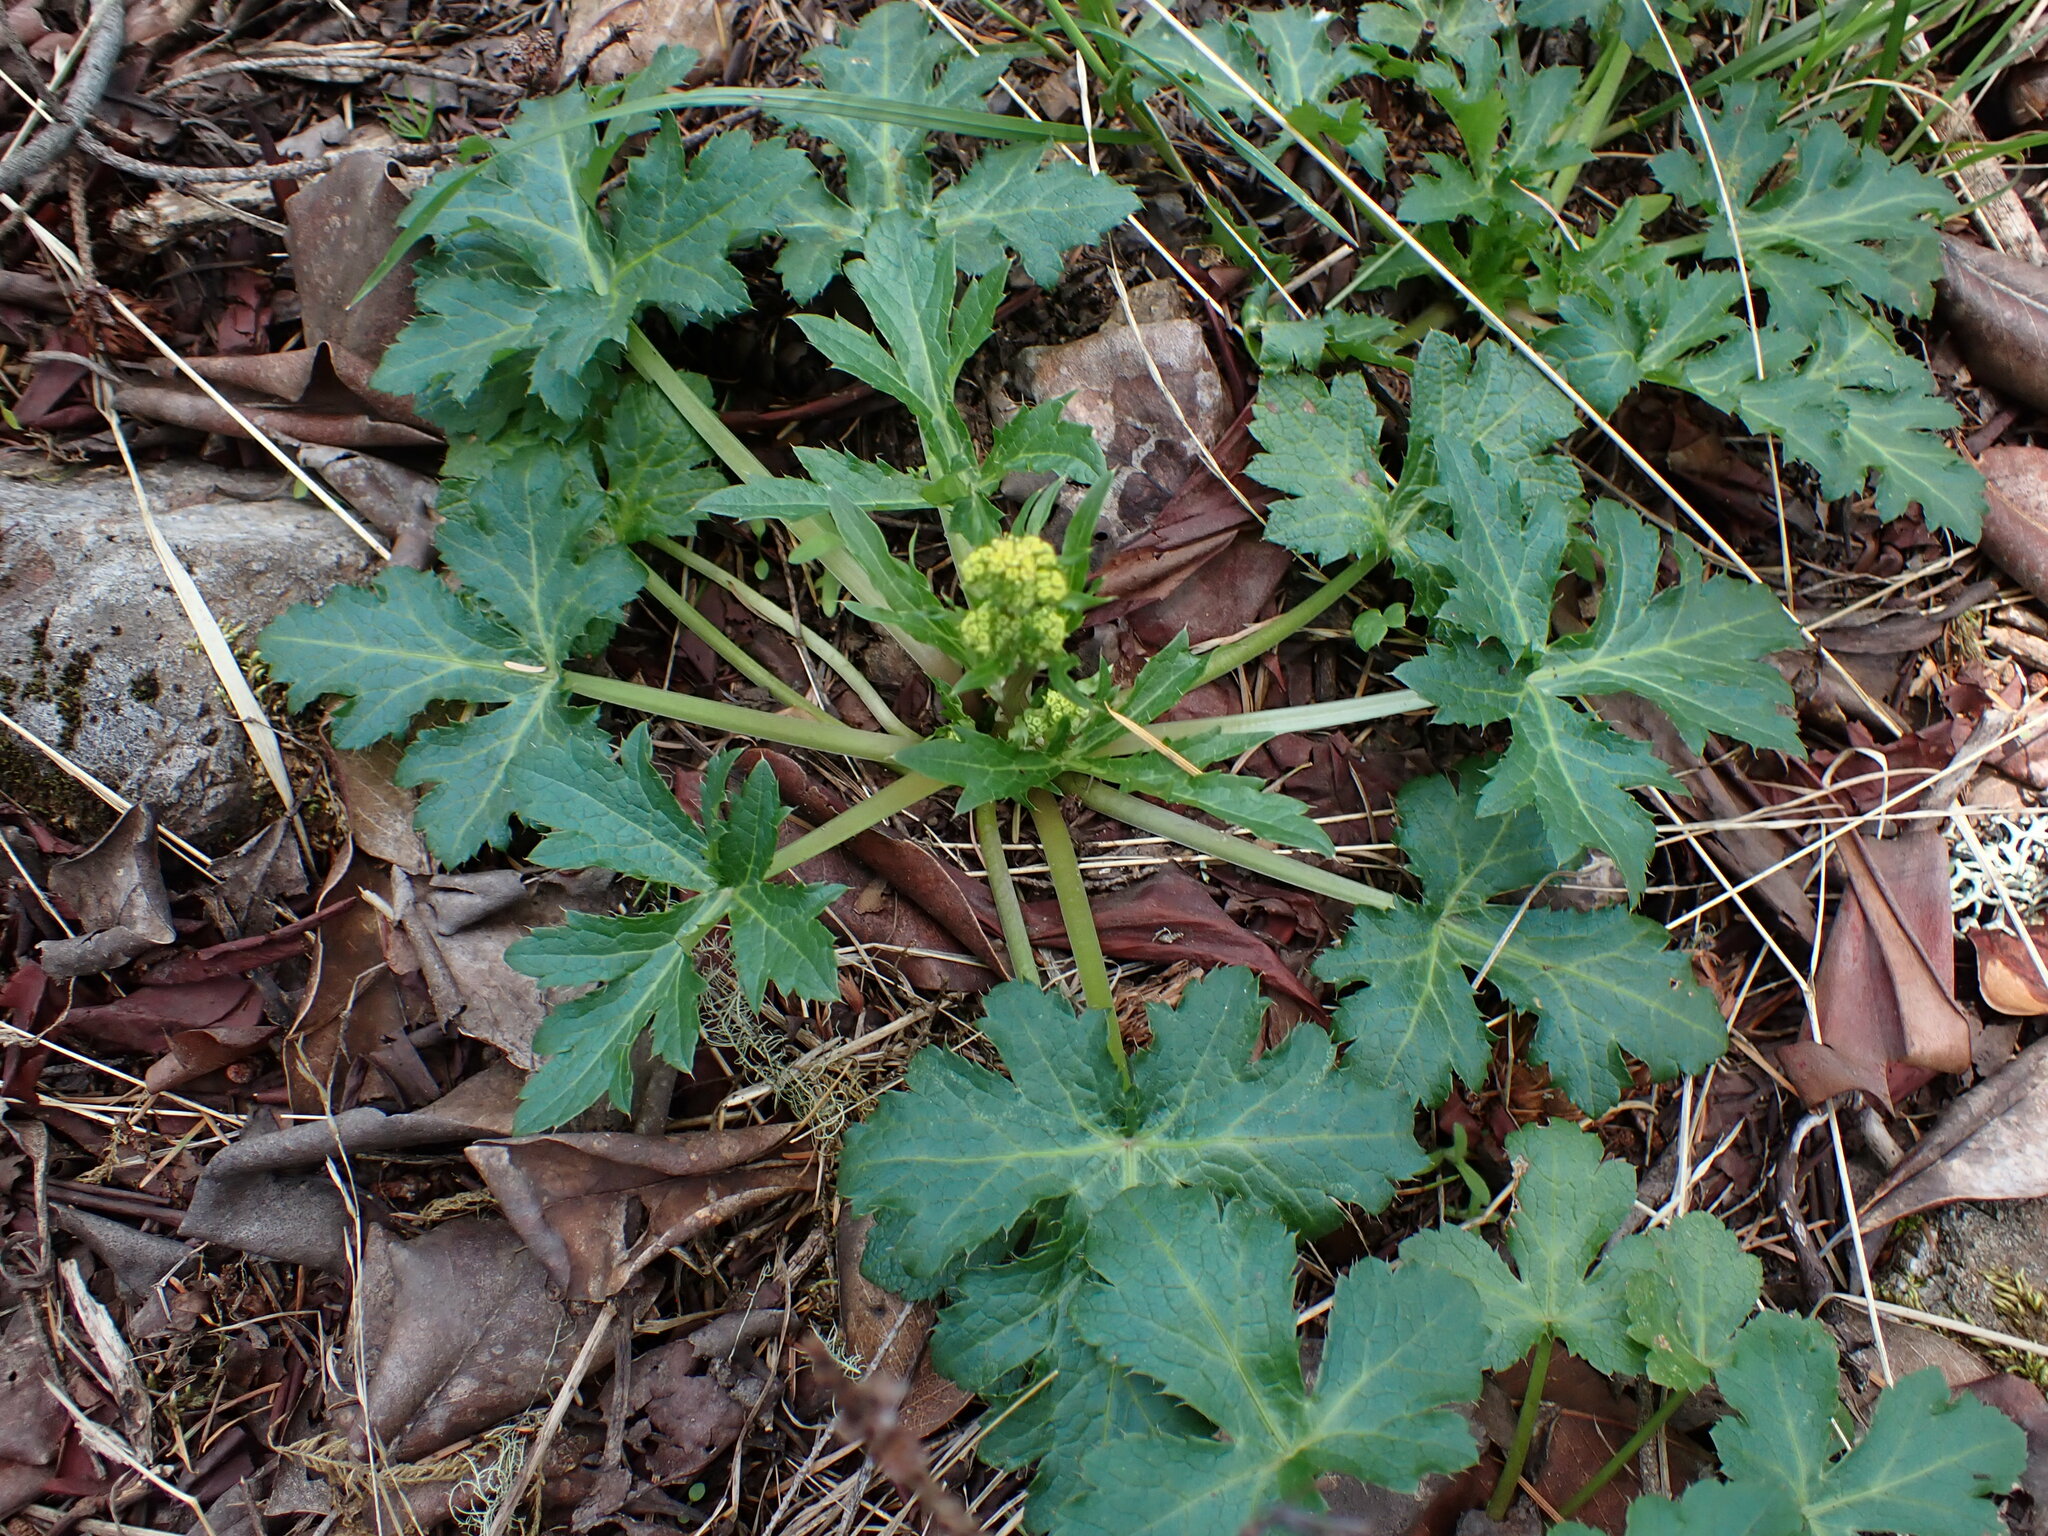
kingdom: Plantae
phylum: Tracheophyta
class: Magnoliopsida
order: Apiales
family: Apiaceae
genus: Sanicula
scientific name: Sanicula crassicaulis
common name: Western snakeroot
